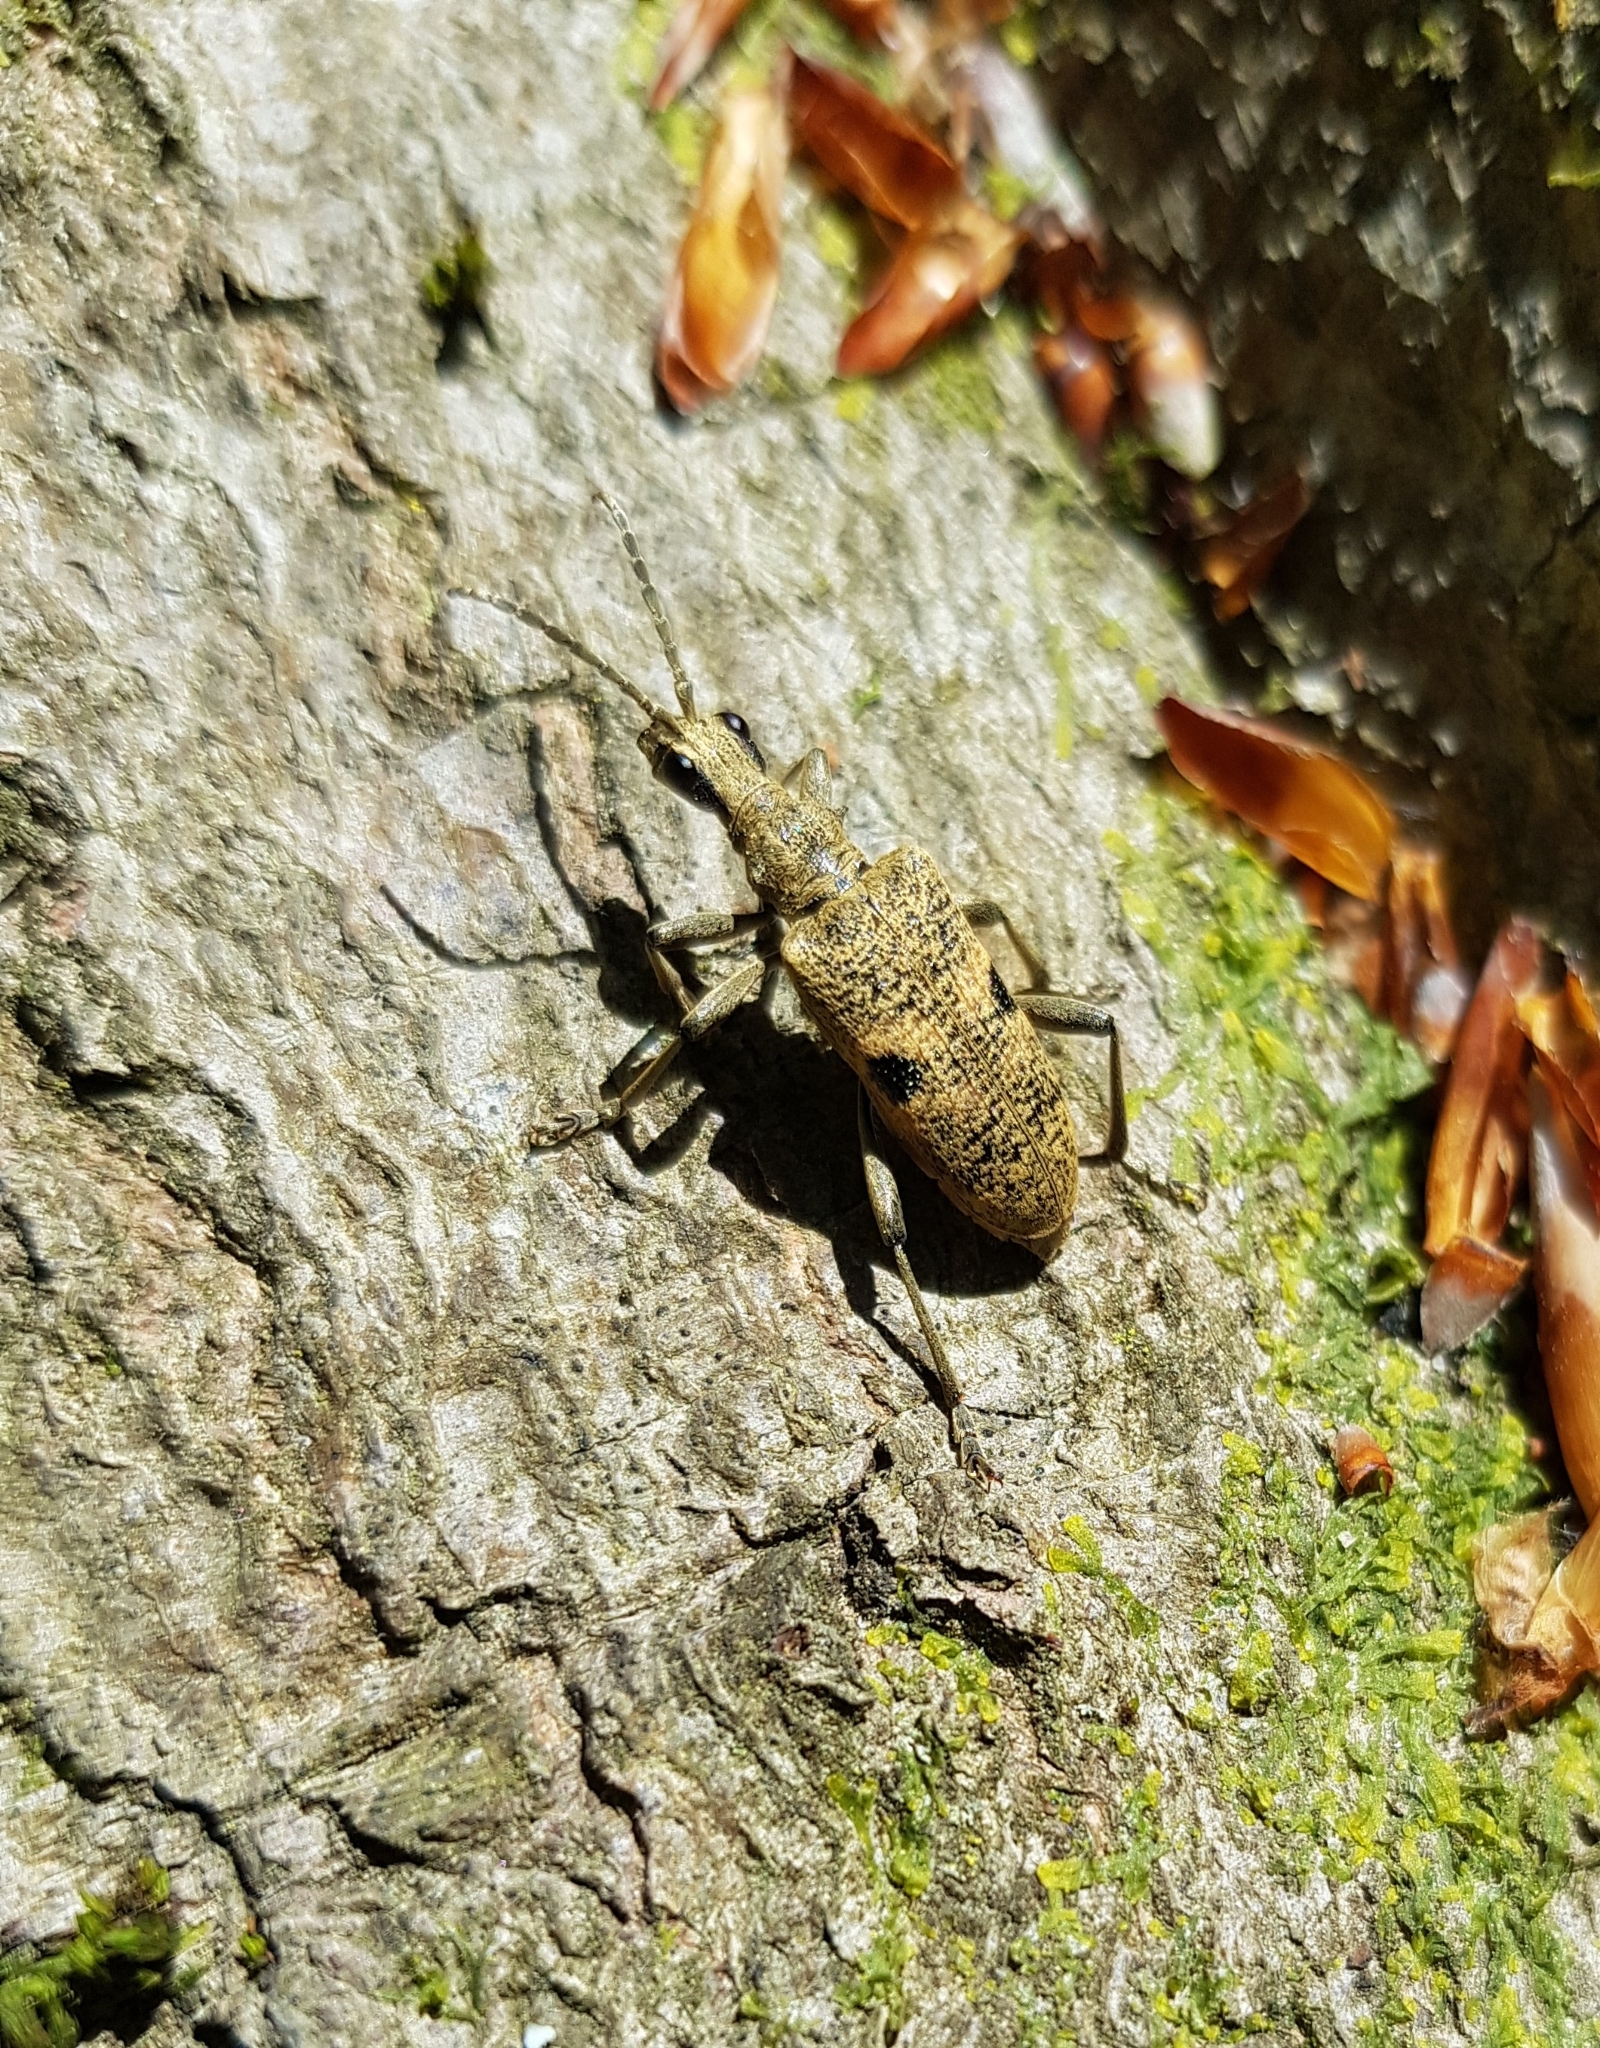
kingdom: Animalia
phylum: Arthropoda
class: Insecta
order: Coleoptera
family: Cerambycidae
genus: Rhagium
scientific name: Rhagium mordax
